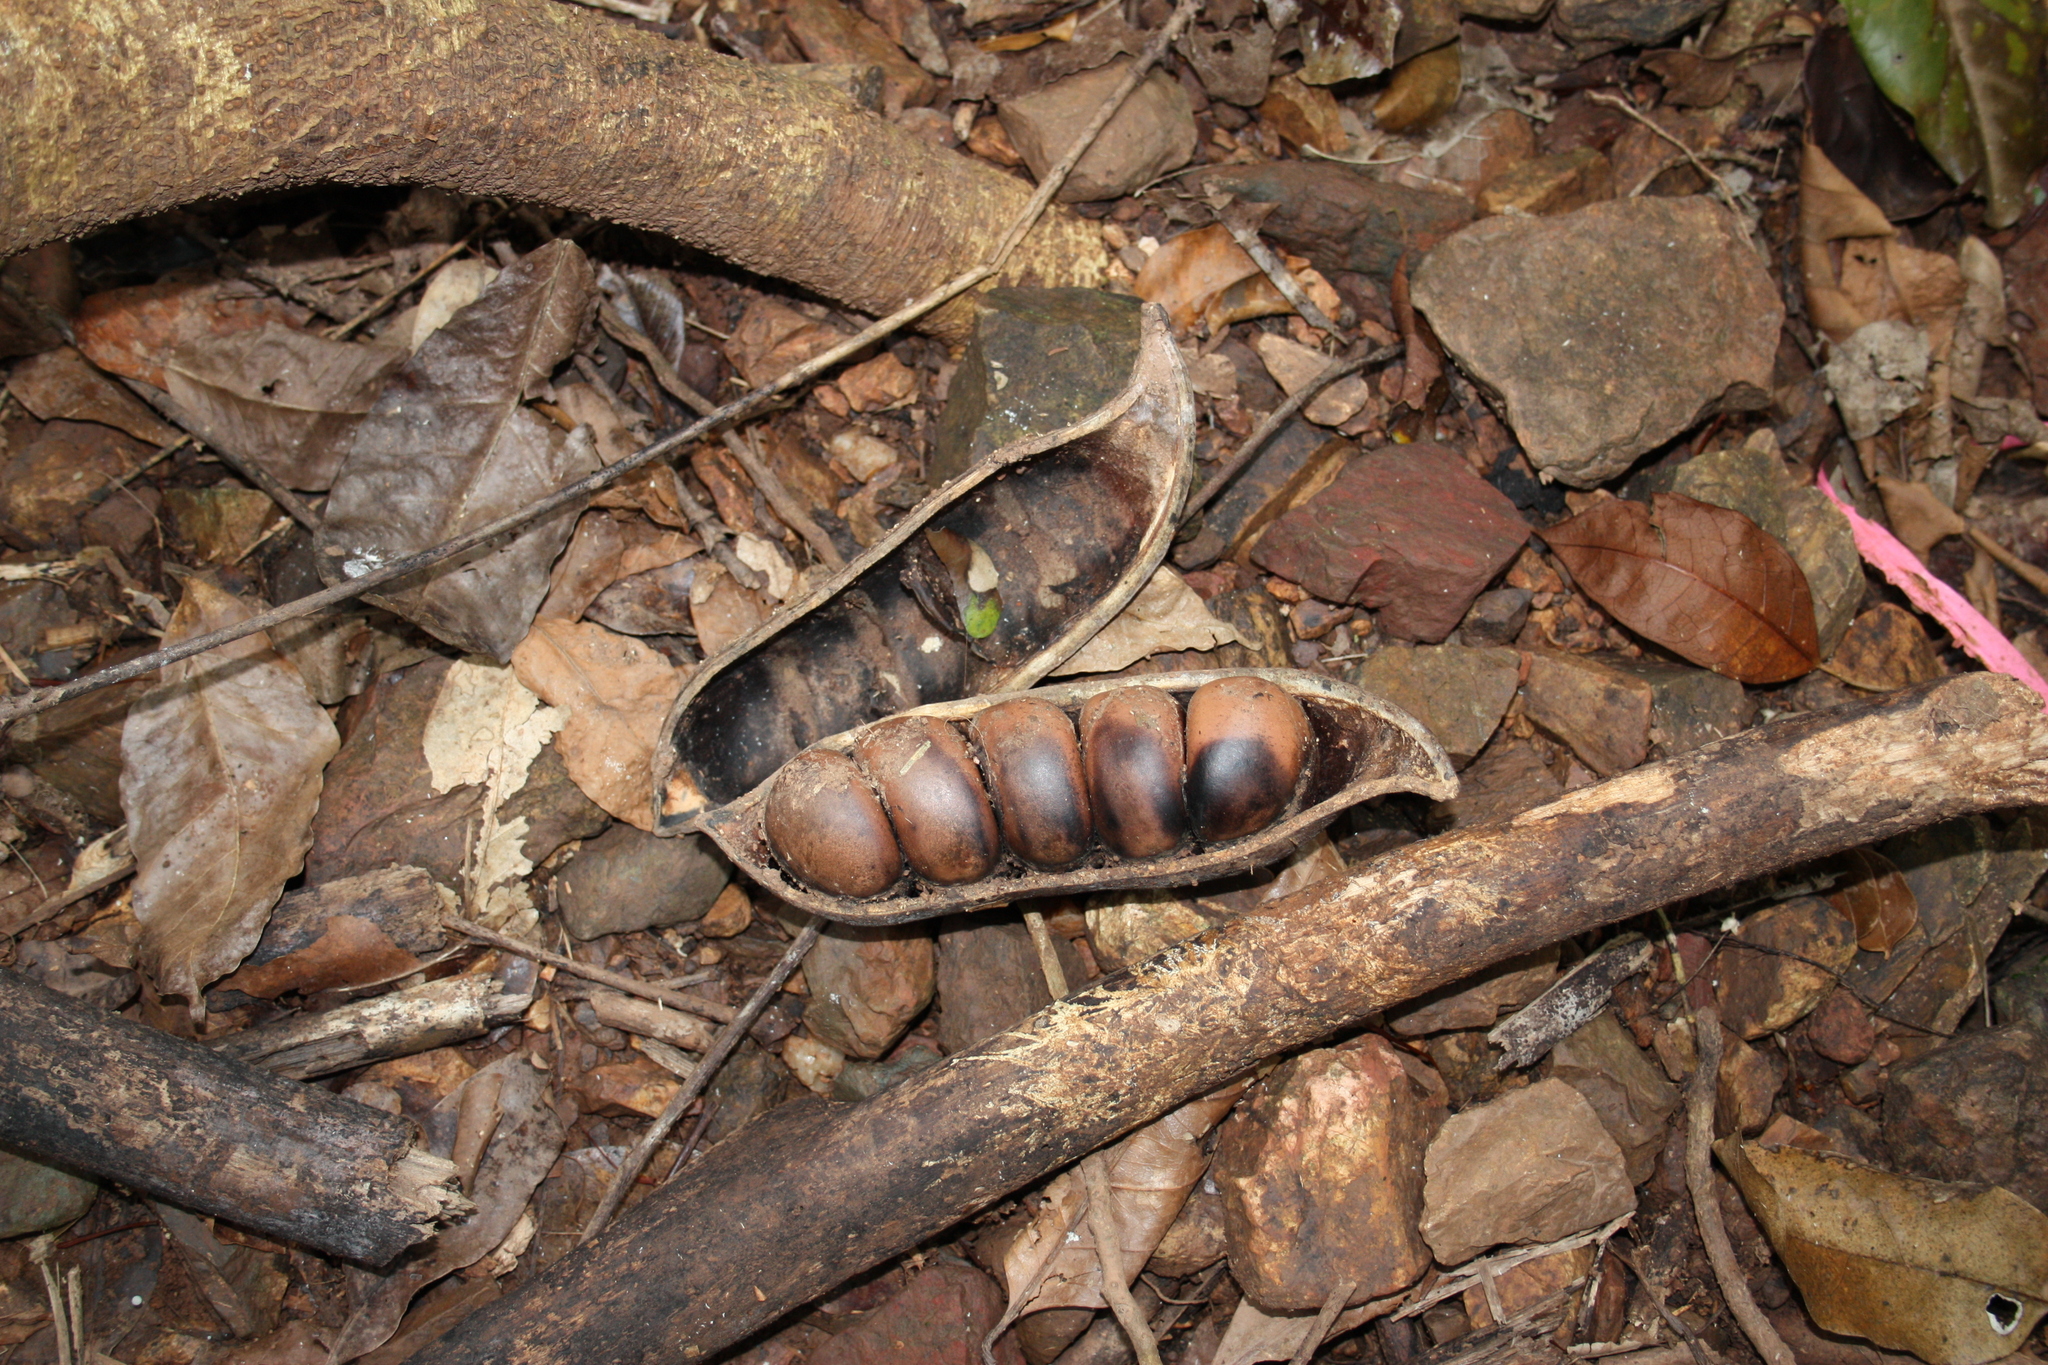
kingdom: Plantae
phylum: Tracheophyta
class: Magnoliopsida
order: Fabales
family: Fabaceae
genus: Castanospermum
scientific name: Castanospermum australe
